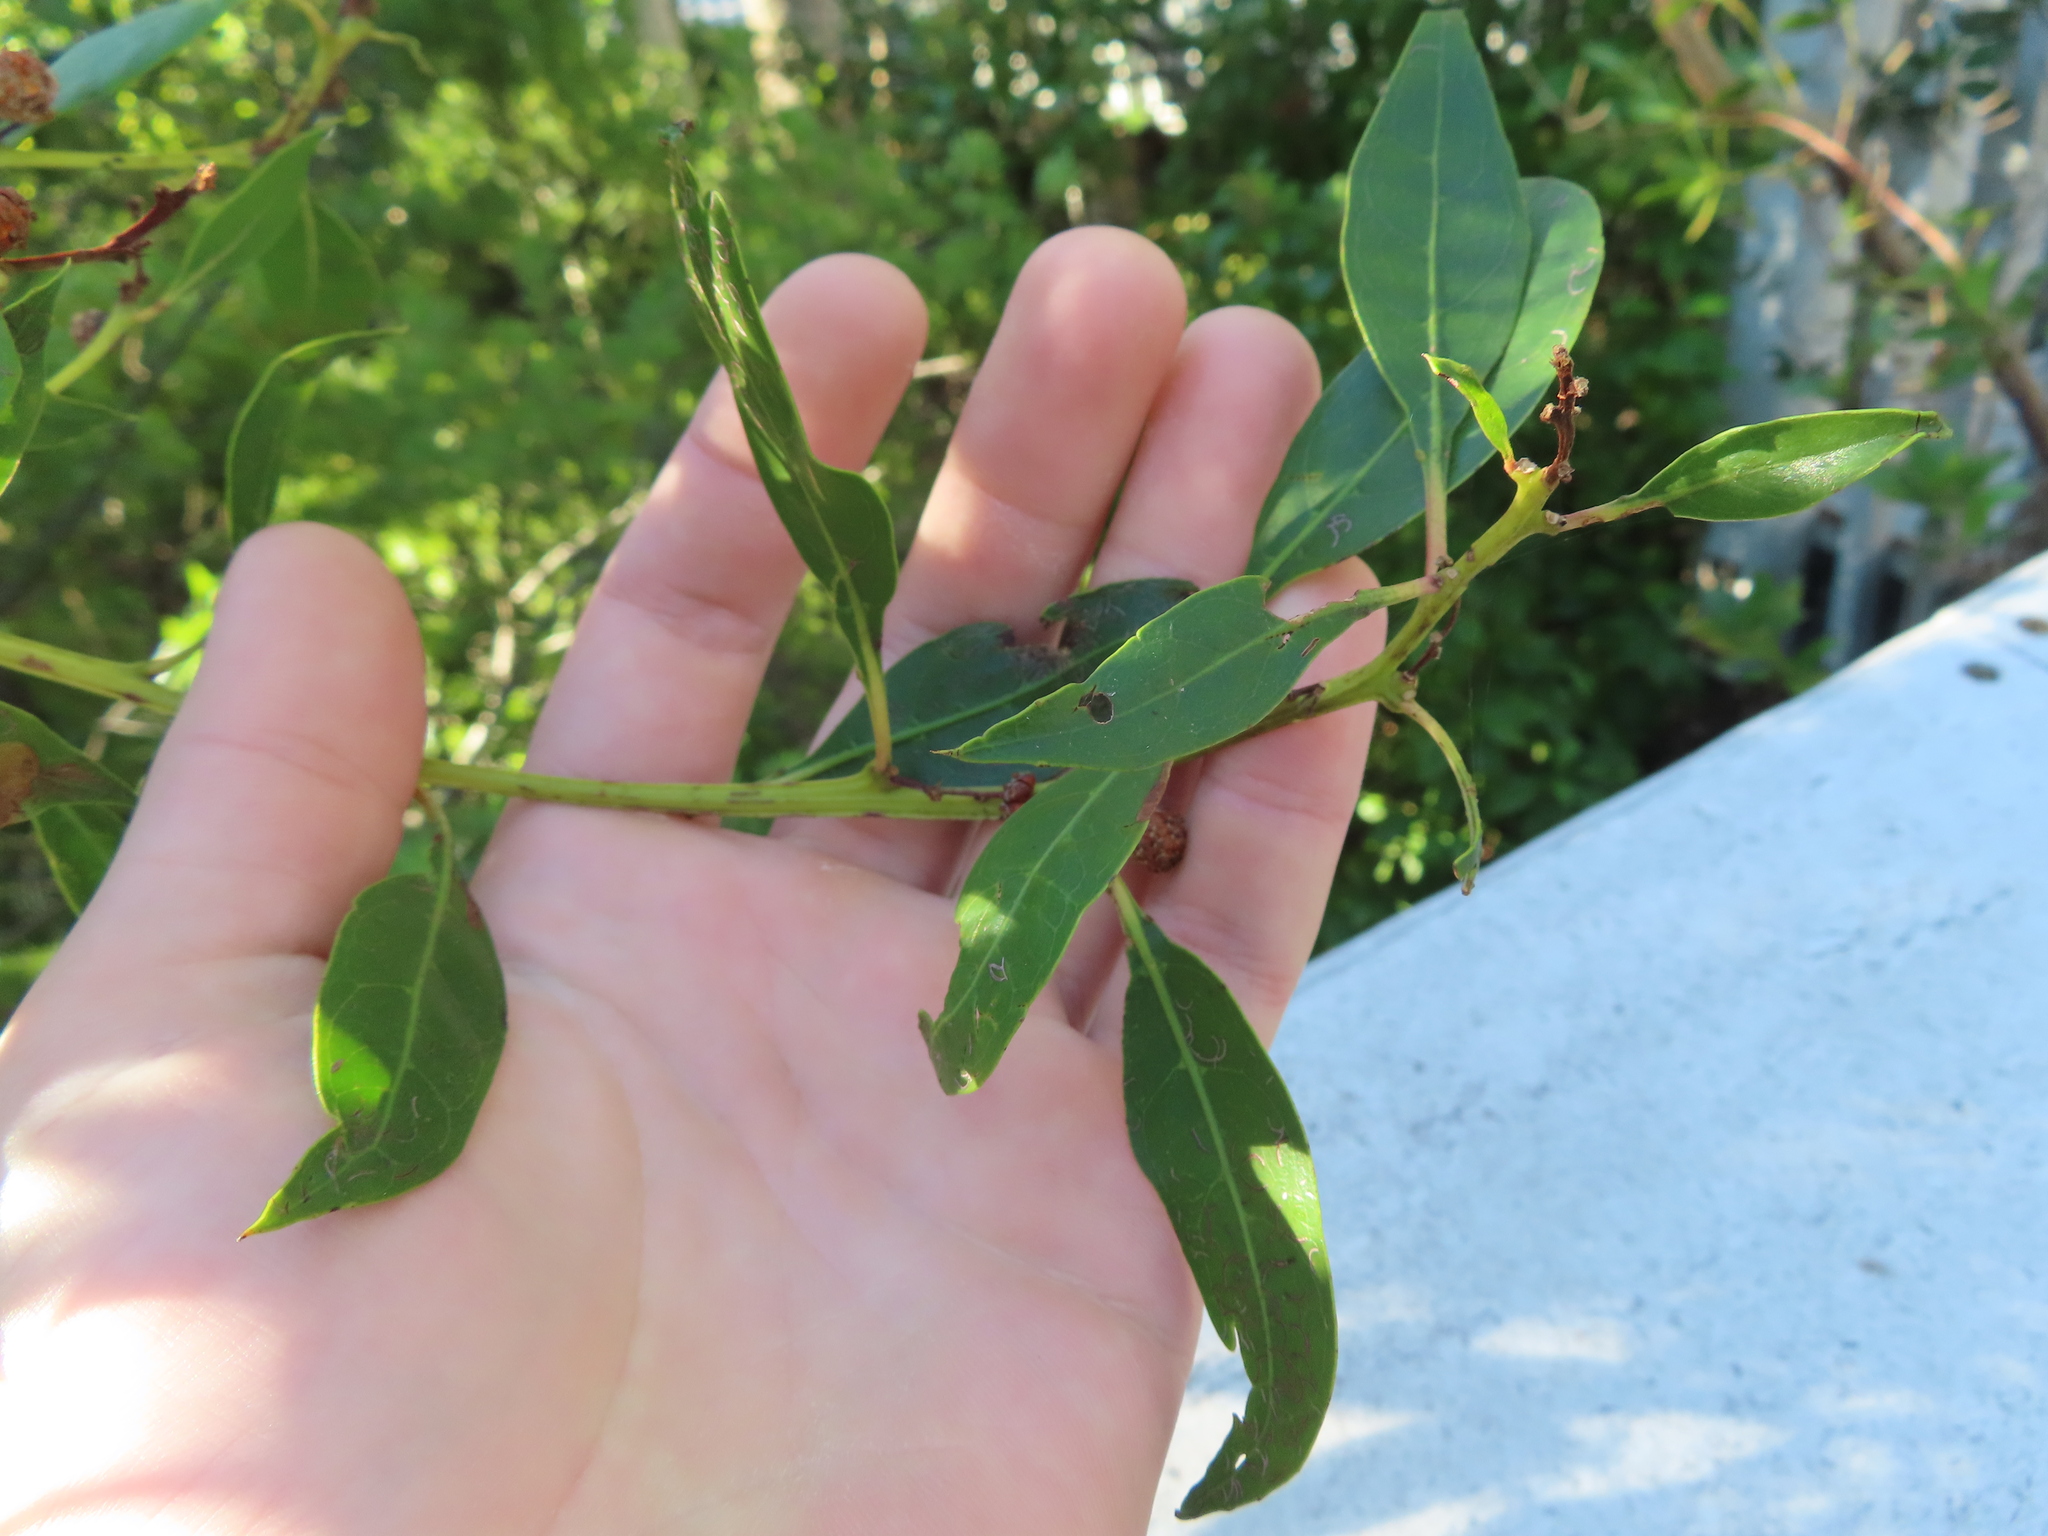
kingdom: Plantae
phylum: Tracheophyta
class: Magnoliopsida
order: Myrtales
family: Combretaceae
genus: Conocarpus
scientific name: Conocarpus erectus
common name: Button mangrove
